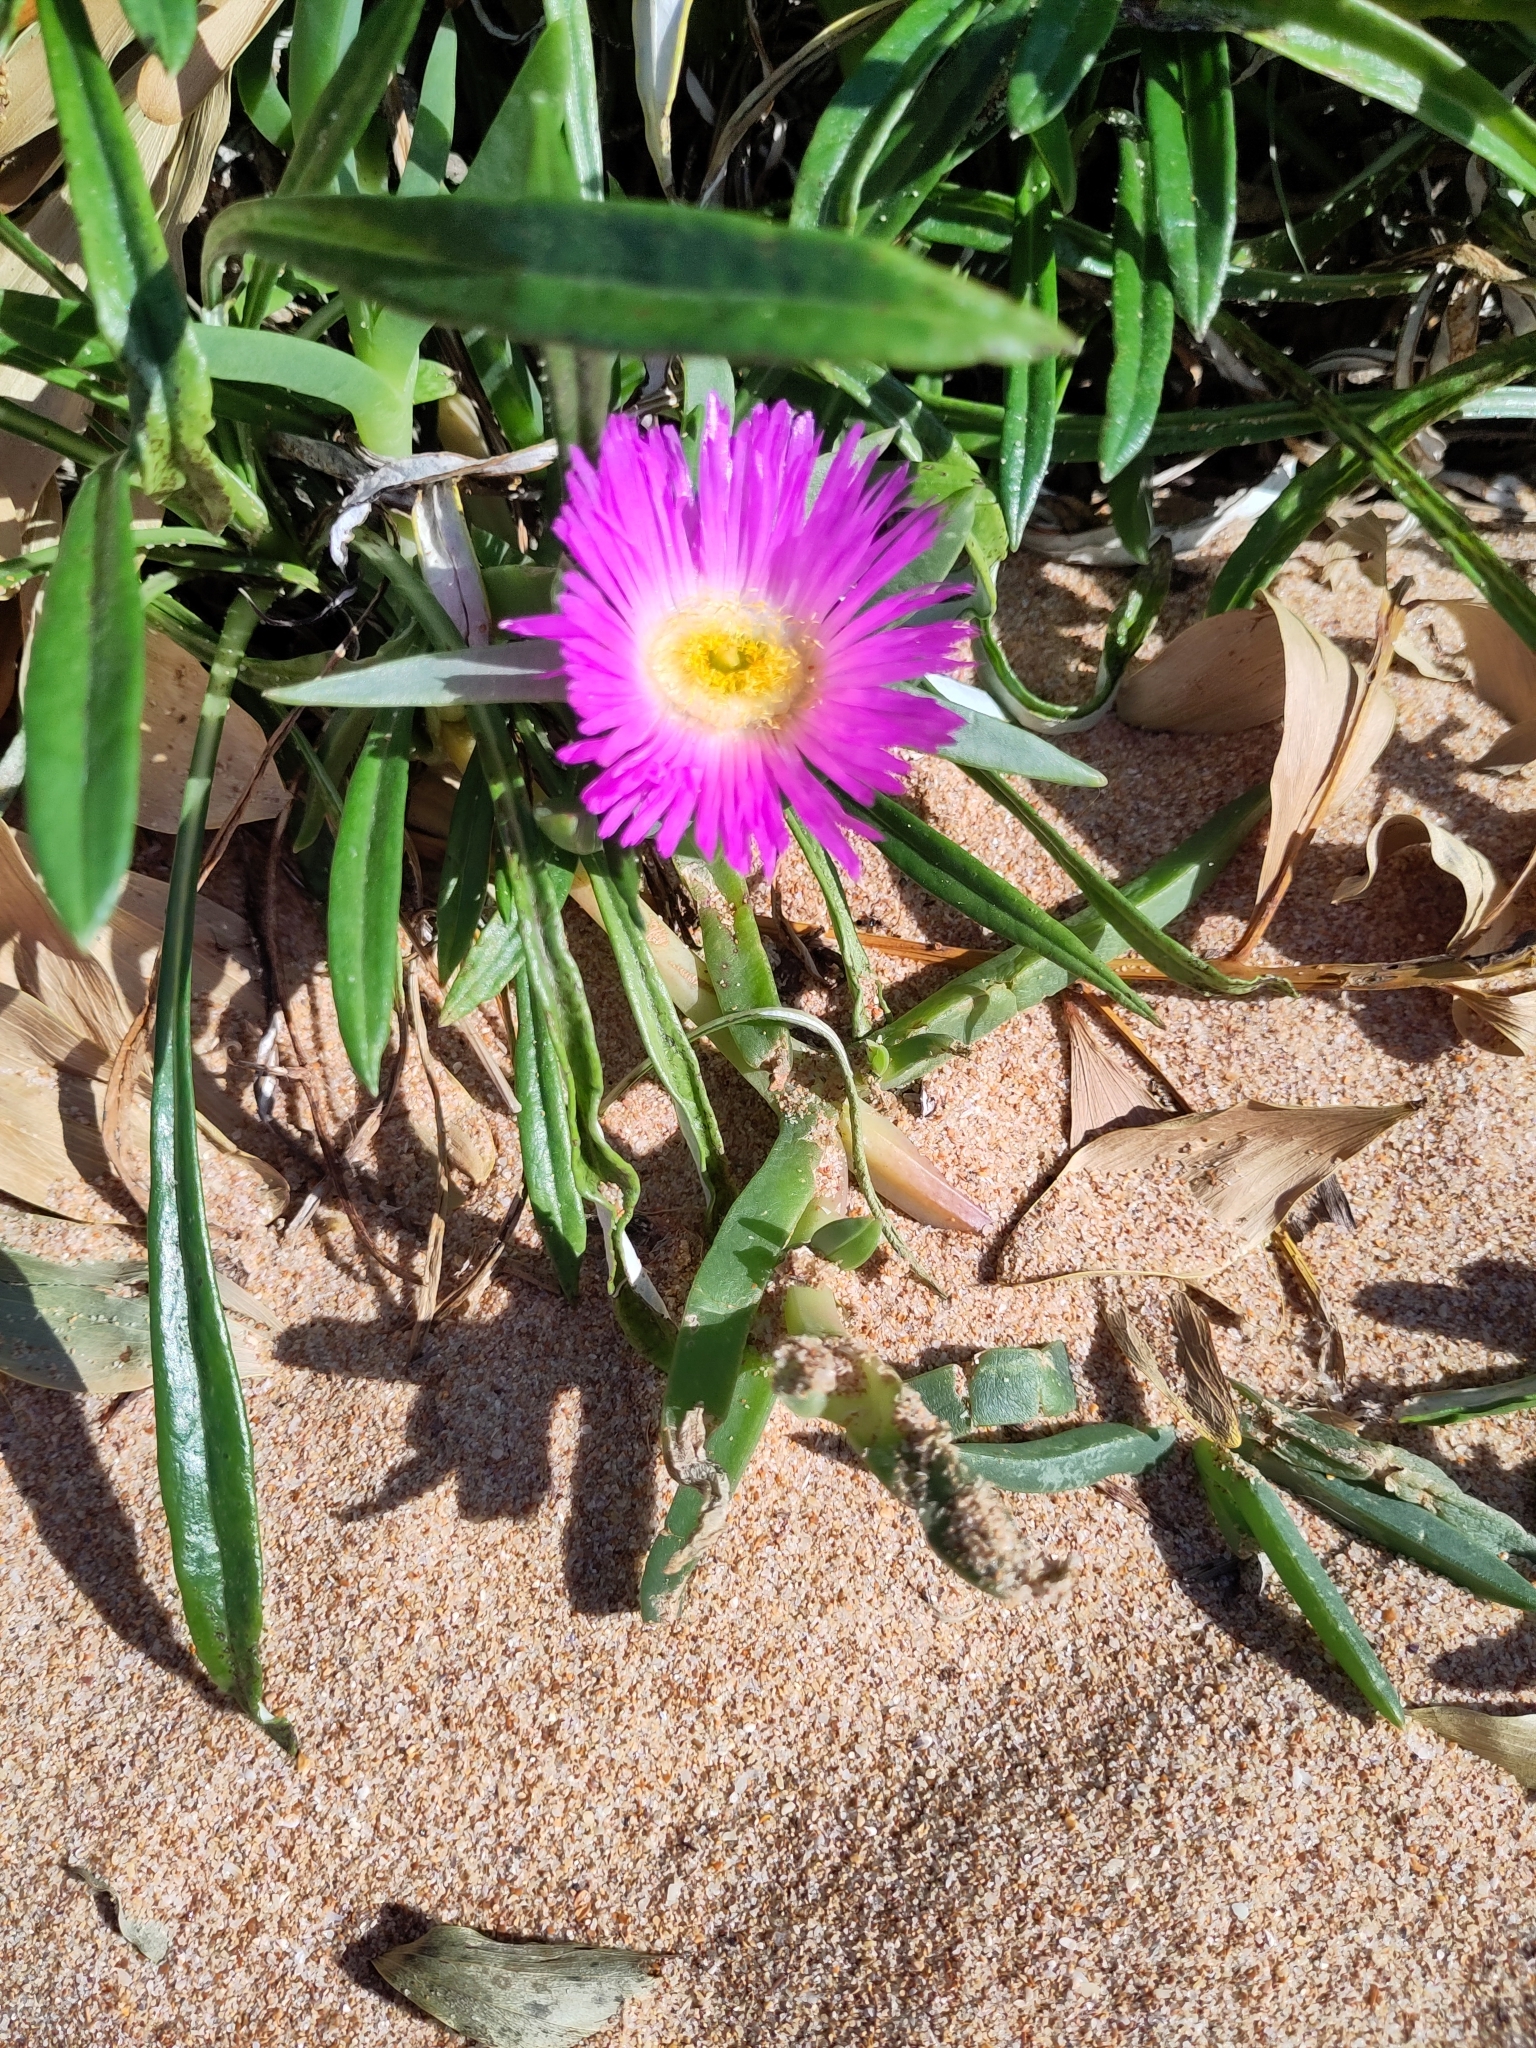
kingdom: Plantae
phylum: Tracheophyta
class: Magnoliopsida
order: Caryophyllales
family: Aizoaceae
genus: Carpobrotus
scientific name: Carpobrotus glaucescens
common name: Angular sea-fig
